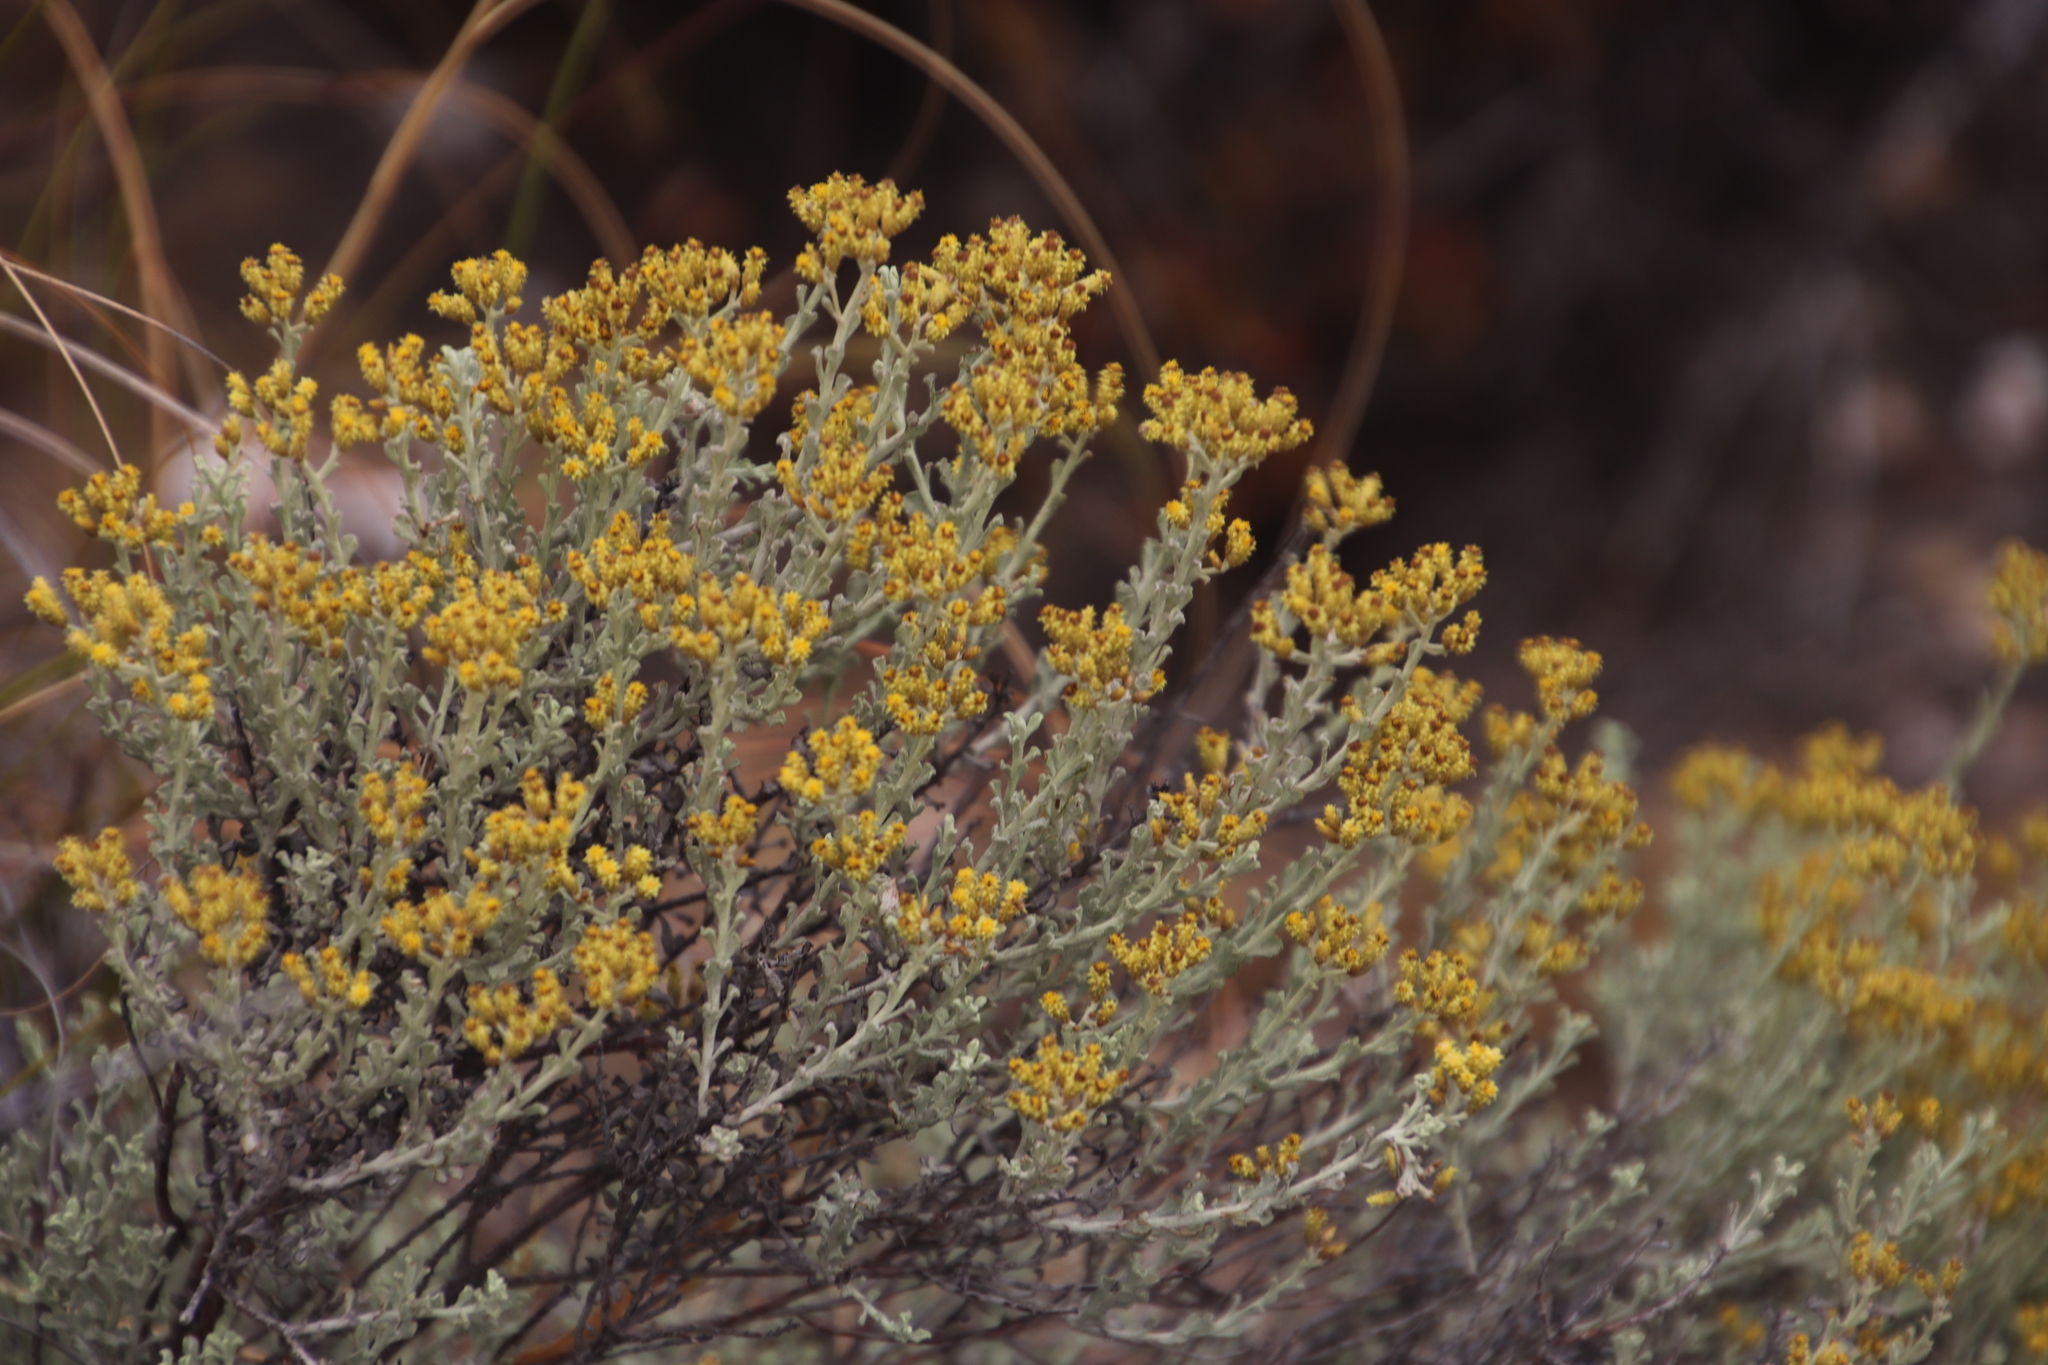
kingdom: Plantae
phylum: Tracheophyta
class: Magnoliopsida
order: Asterales
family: Asteraceae
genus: Helichrysum
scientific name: Helichrysum excisum
